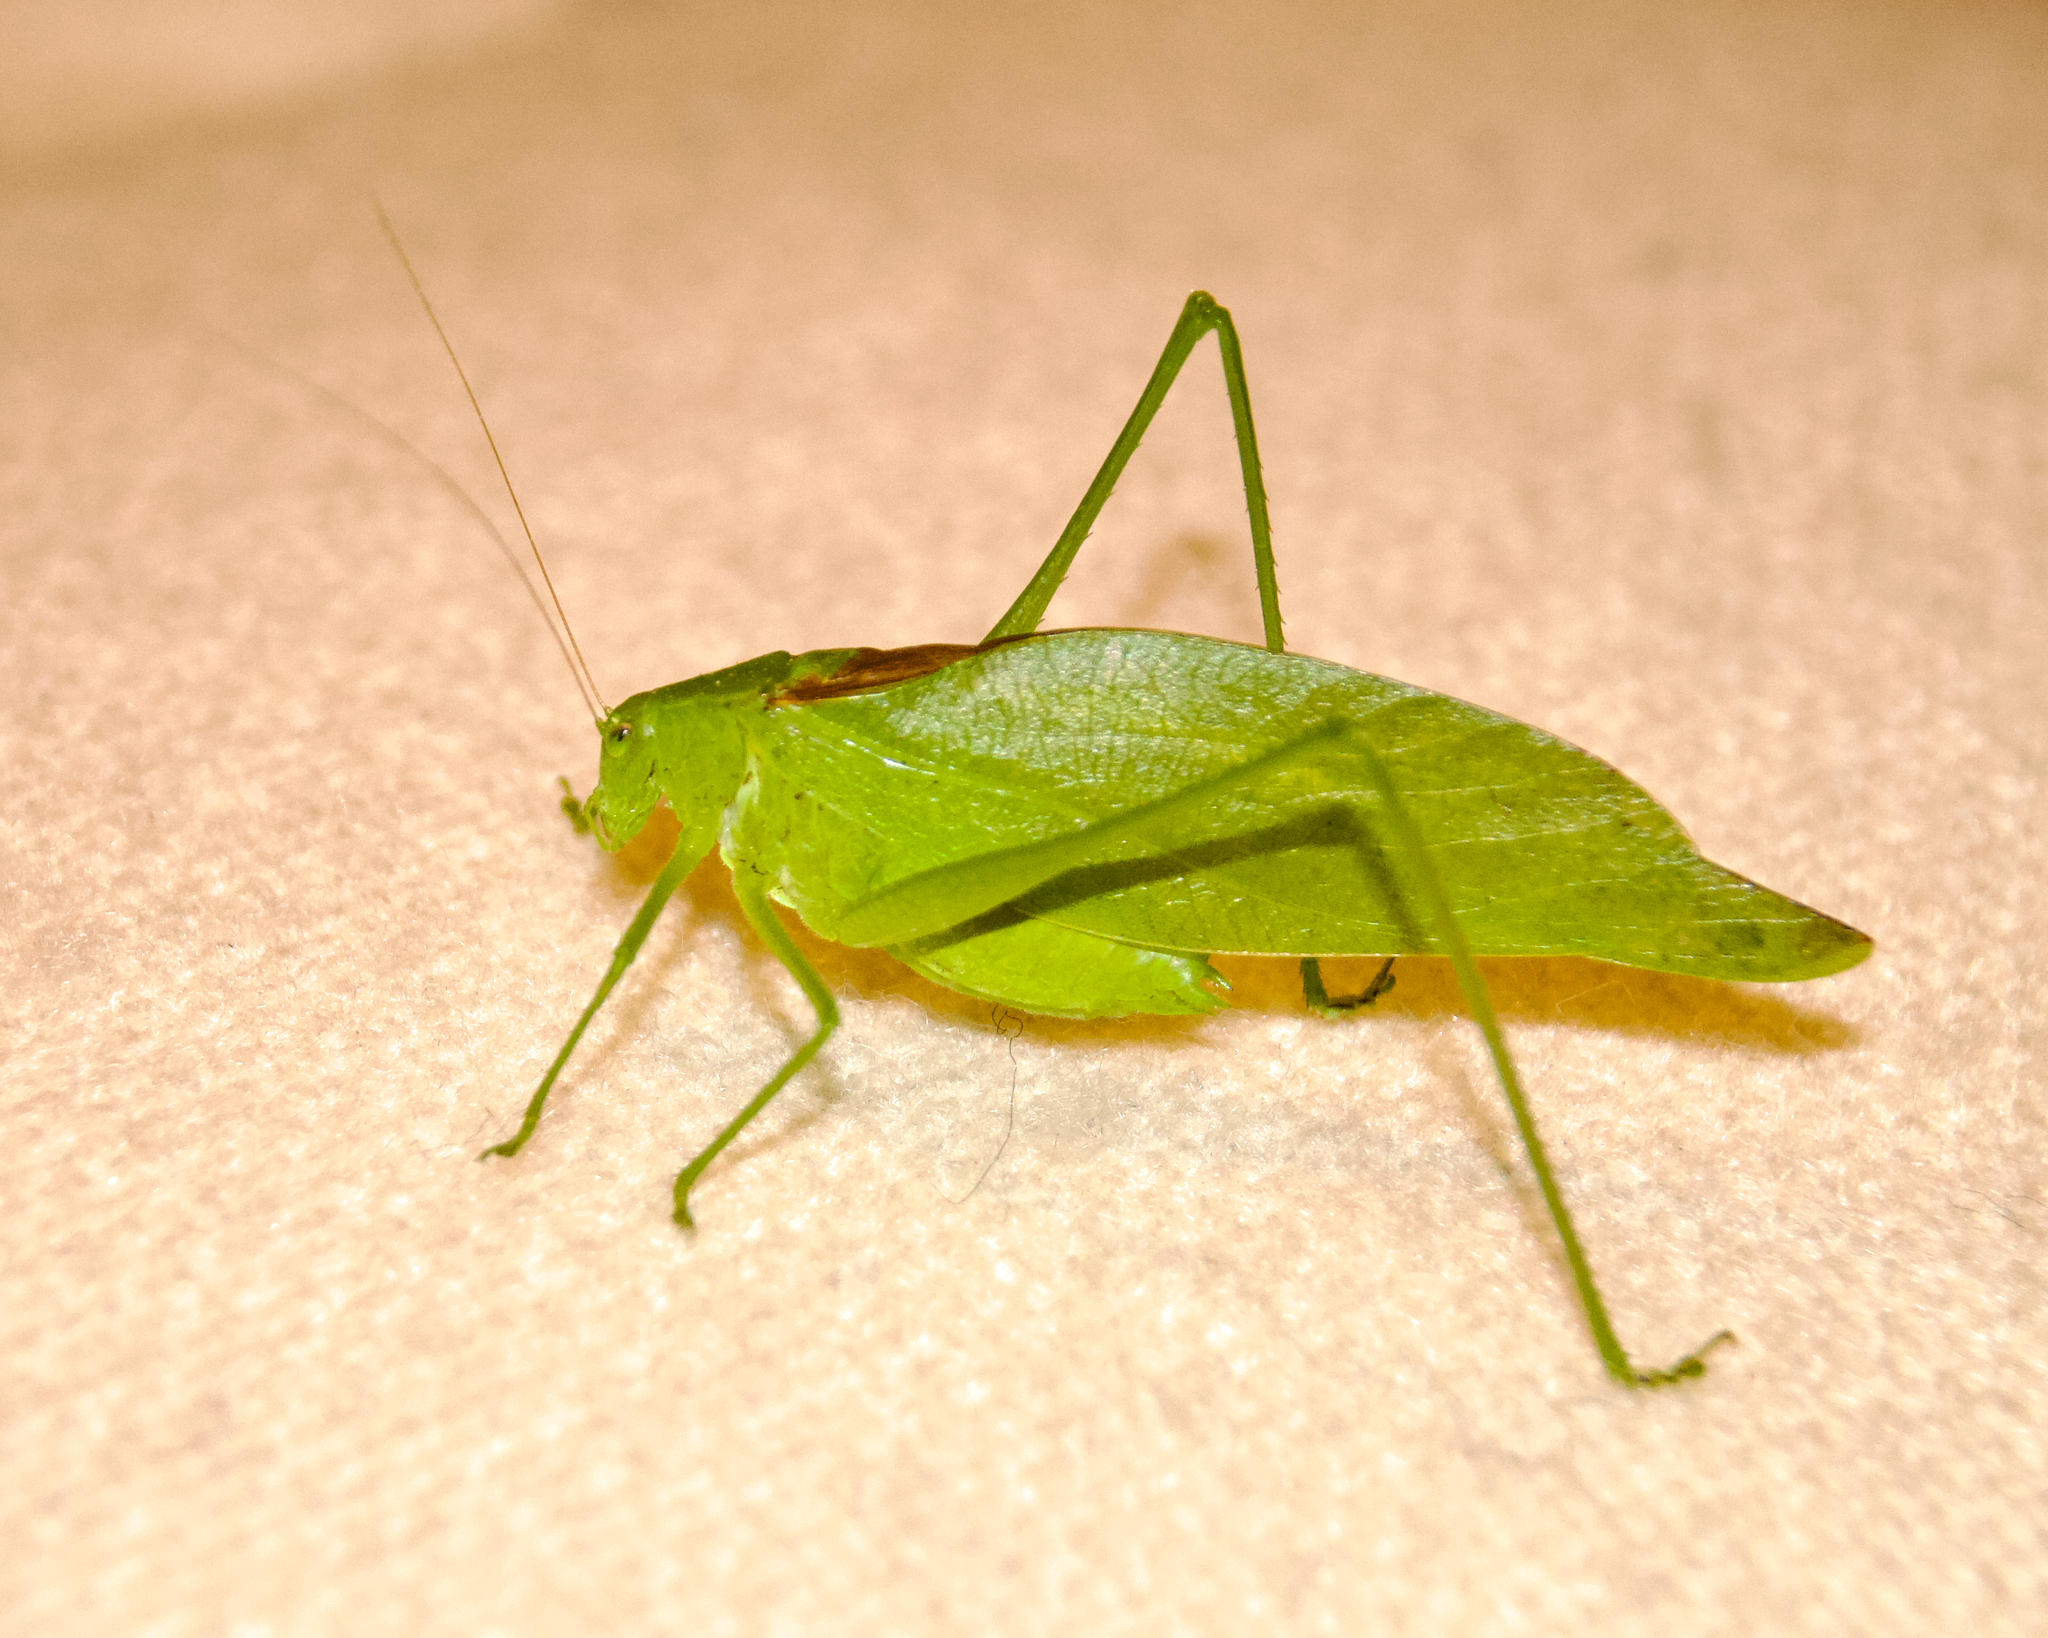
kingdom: Animalia
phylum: Arthropoda
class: Insecta
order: Orthoptera
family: Tettigoniidae
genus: Amblycorypha
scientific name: Amblycorypha oblongifolia
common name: Oblong-winged katydid
